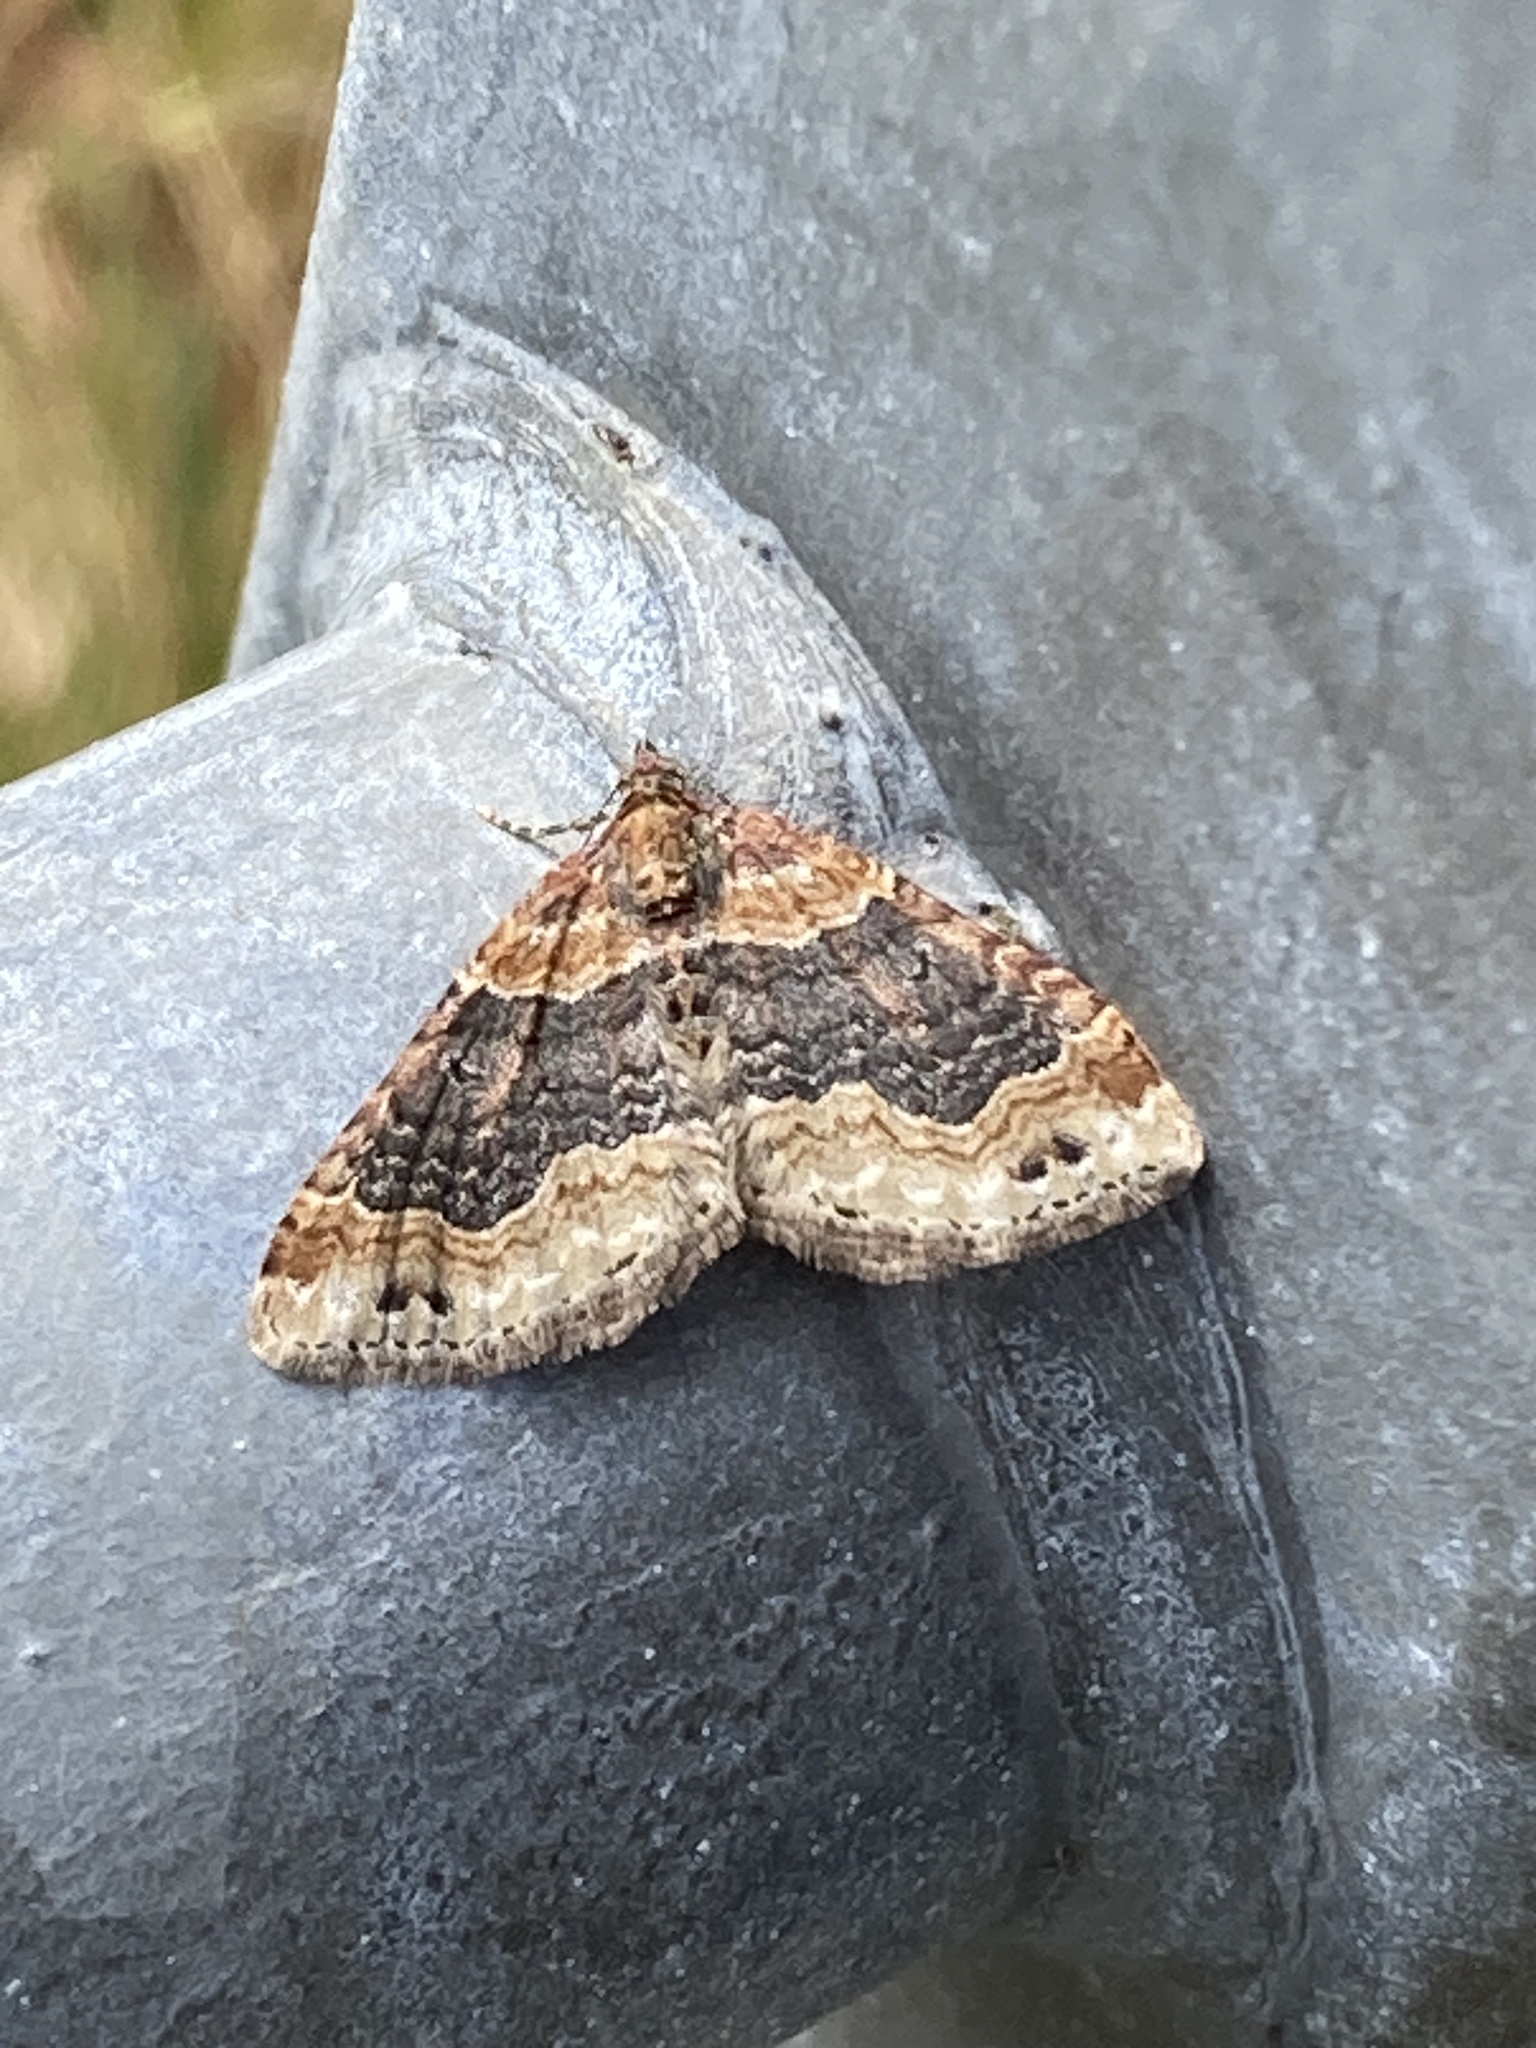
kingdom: Animalia
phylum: Arthropoda
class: Insecta
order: Lepidoptera
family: Geometridae
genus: Xanthorhoe
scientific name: Xanthorhoe ferrugata
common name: Dark-barred twin-spot carpet
